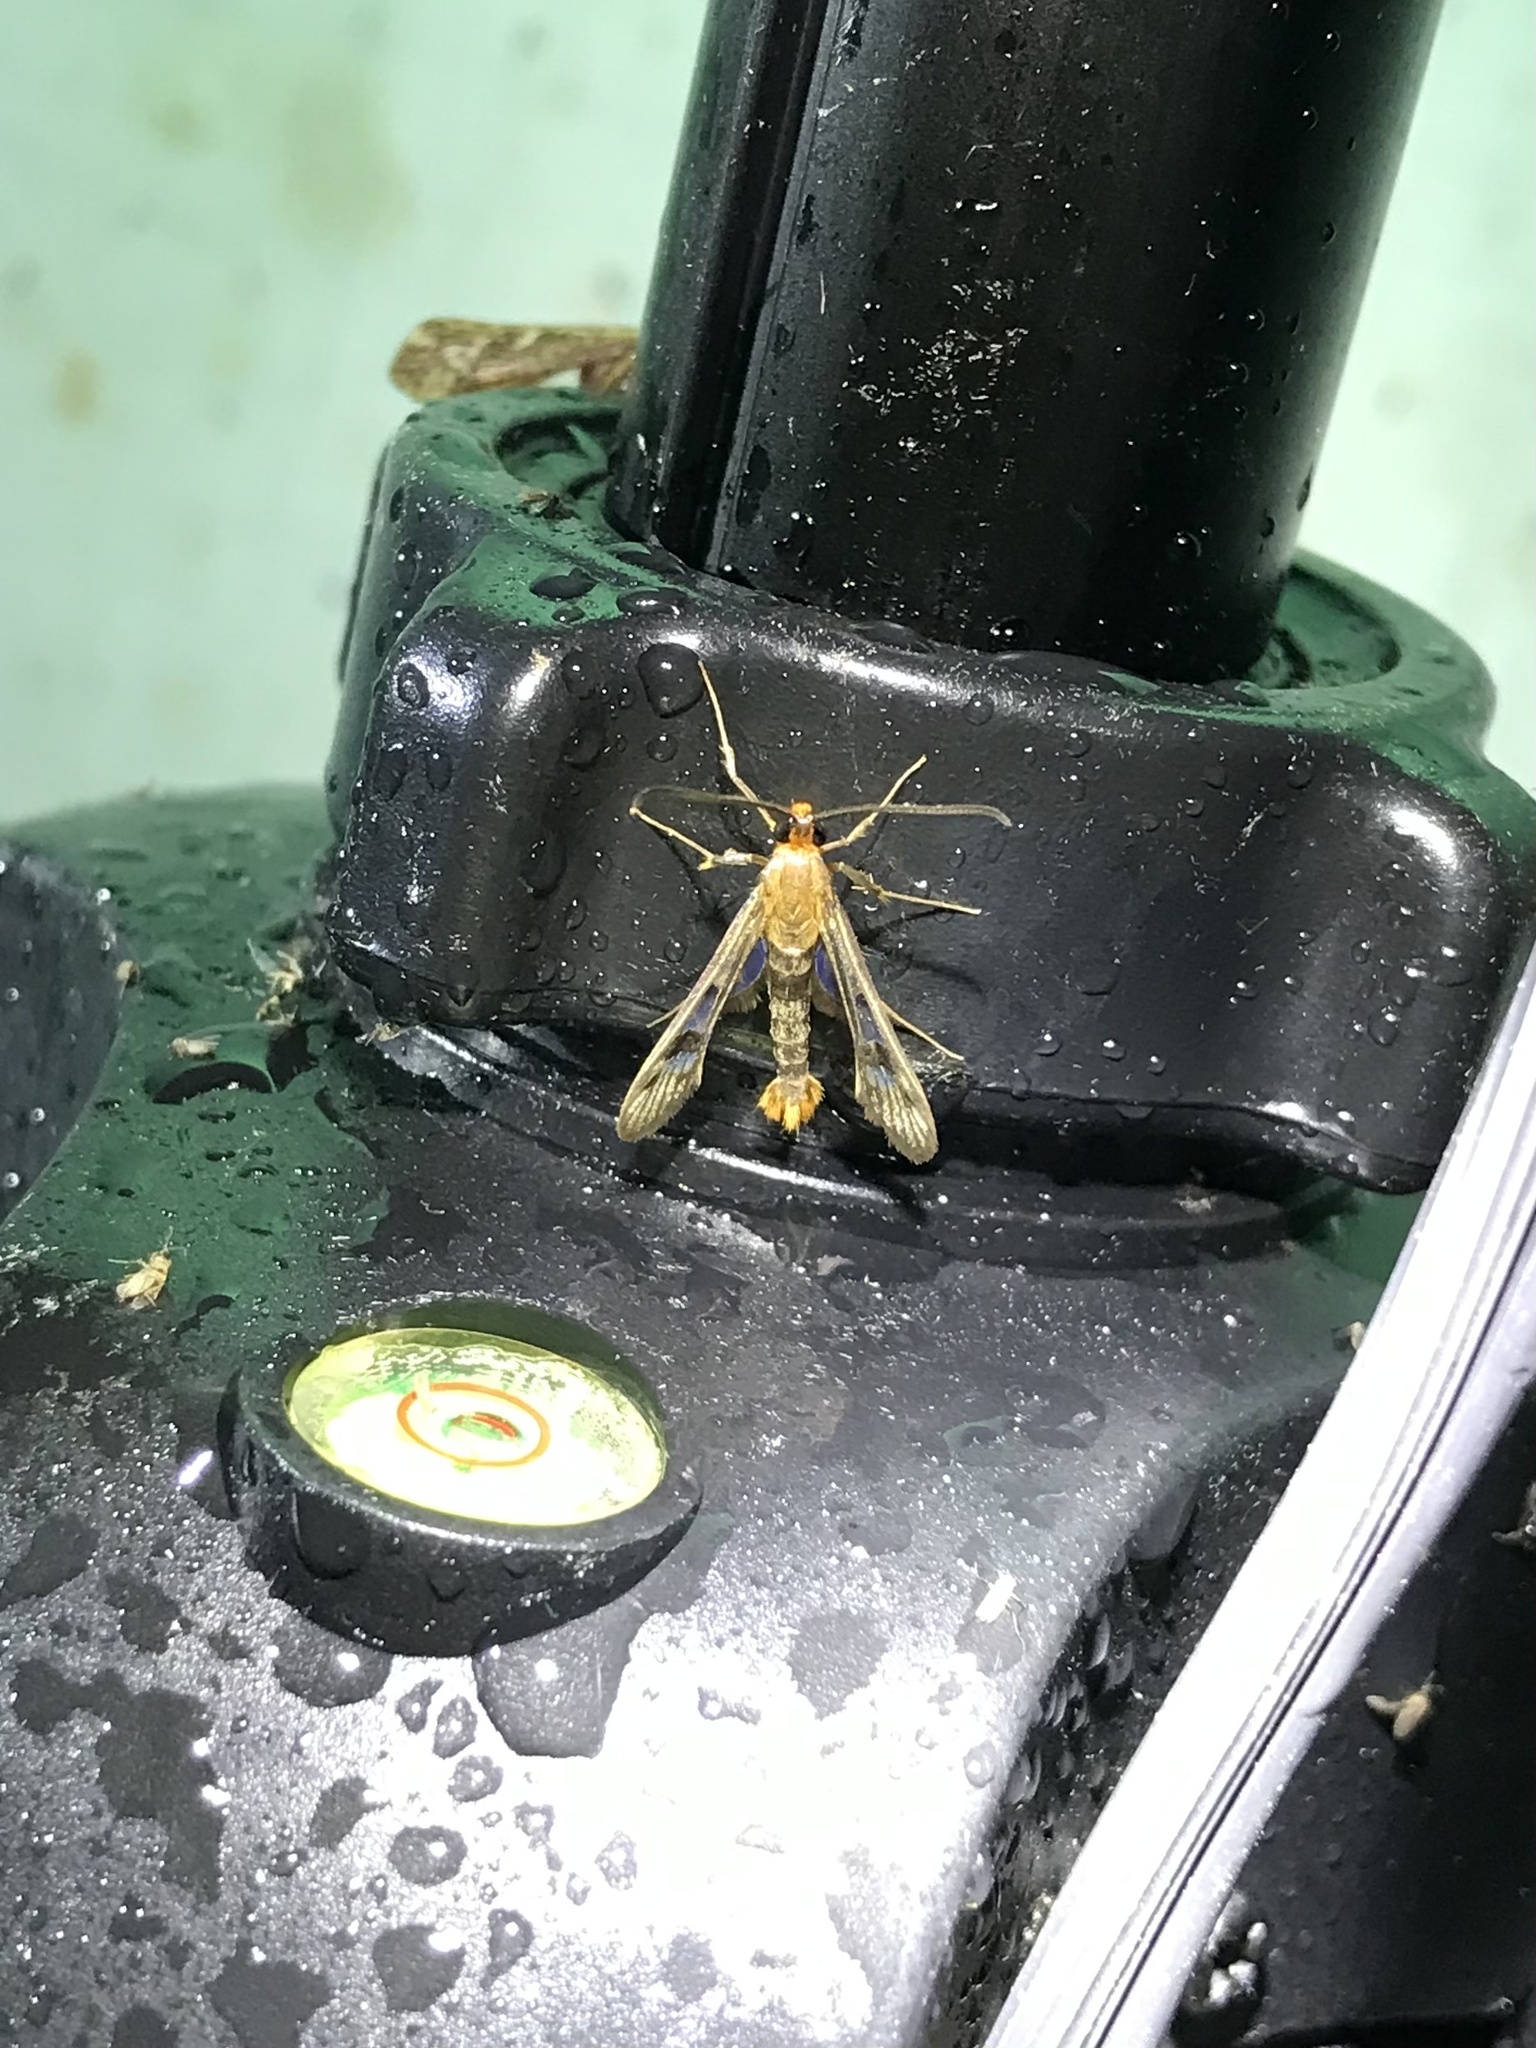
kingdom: Animalia
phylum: Arthropoda
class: Insecta
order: Lepidoptera
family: Sesiidae
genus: Synanthedon
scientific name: Synanthedon acerni
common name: Maple callus borer moth
